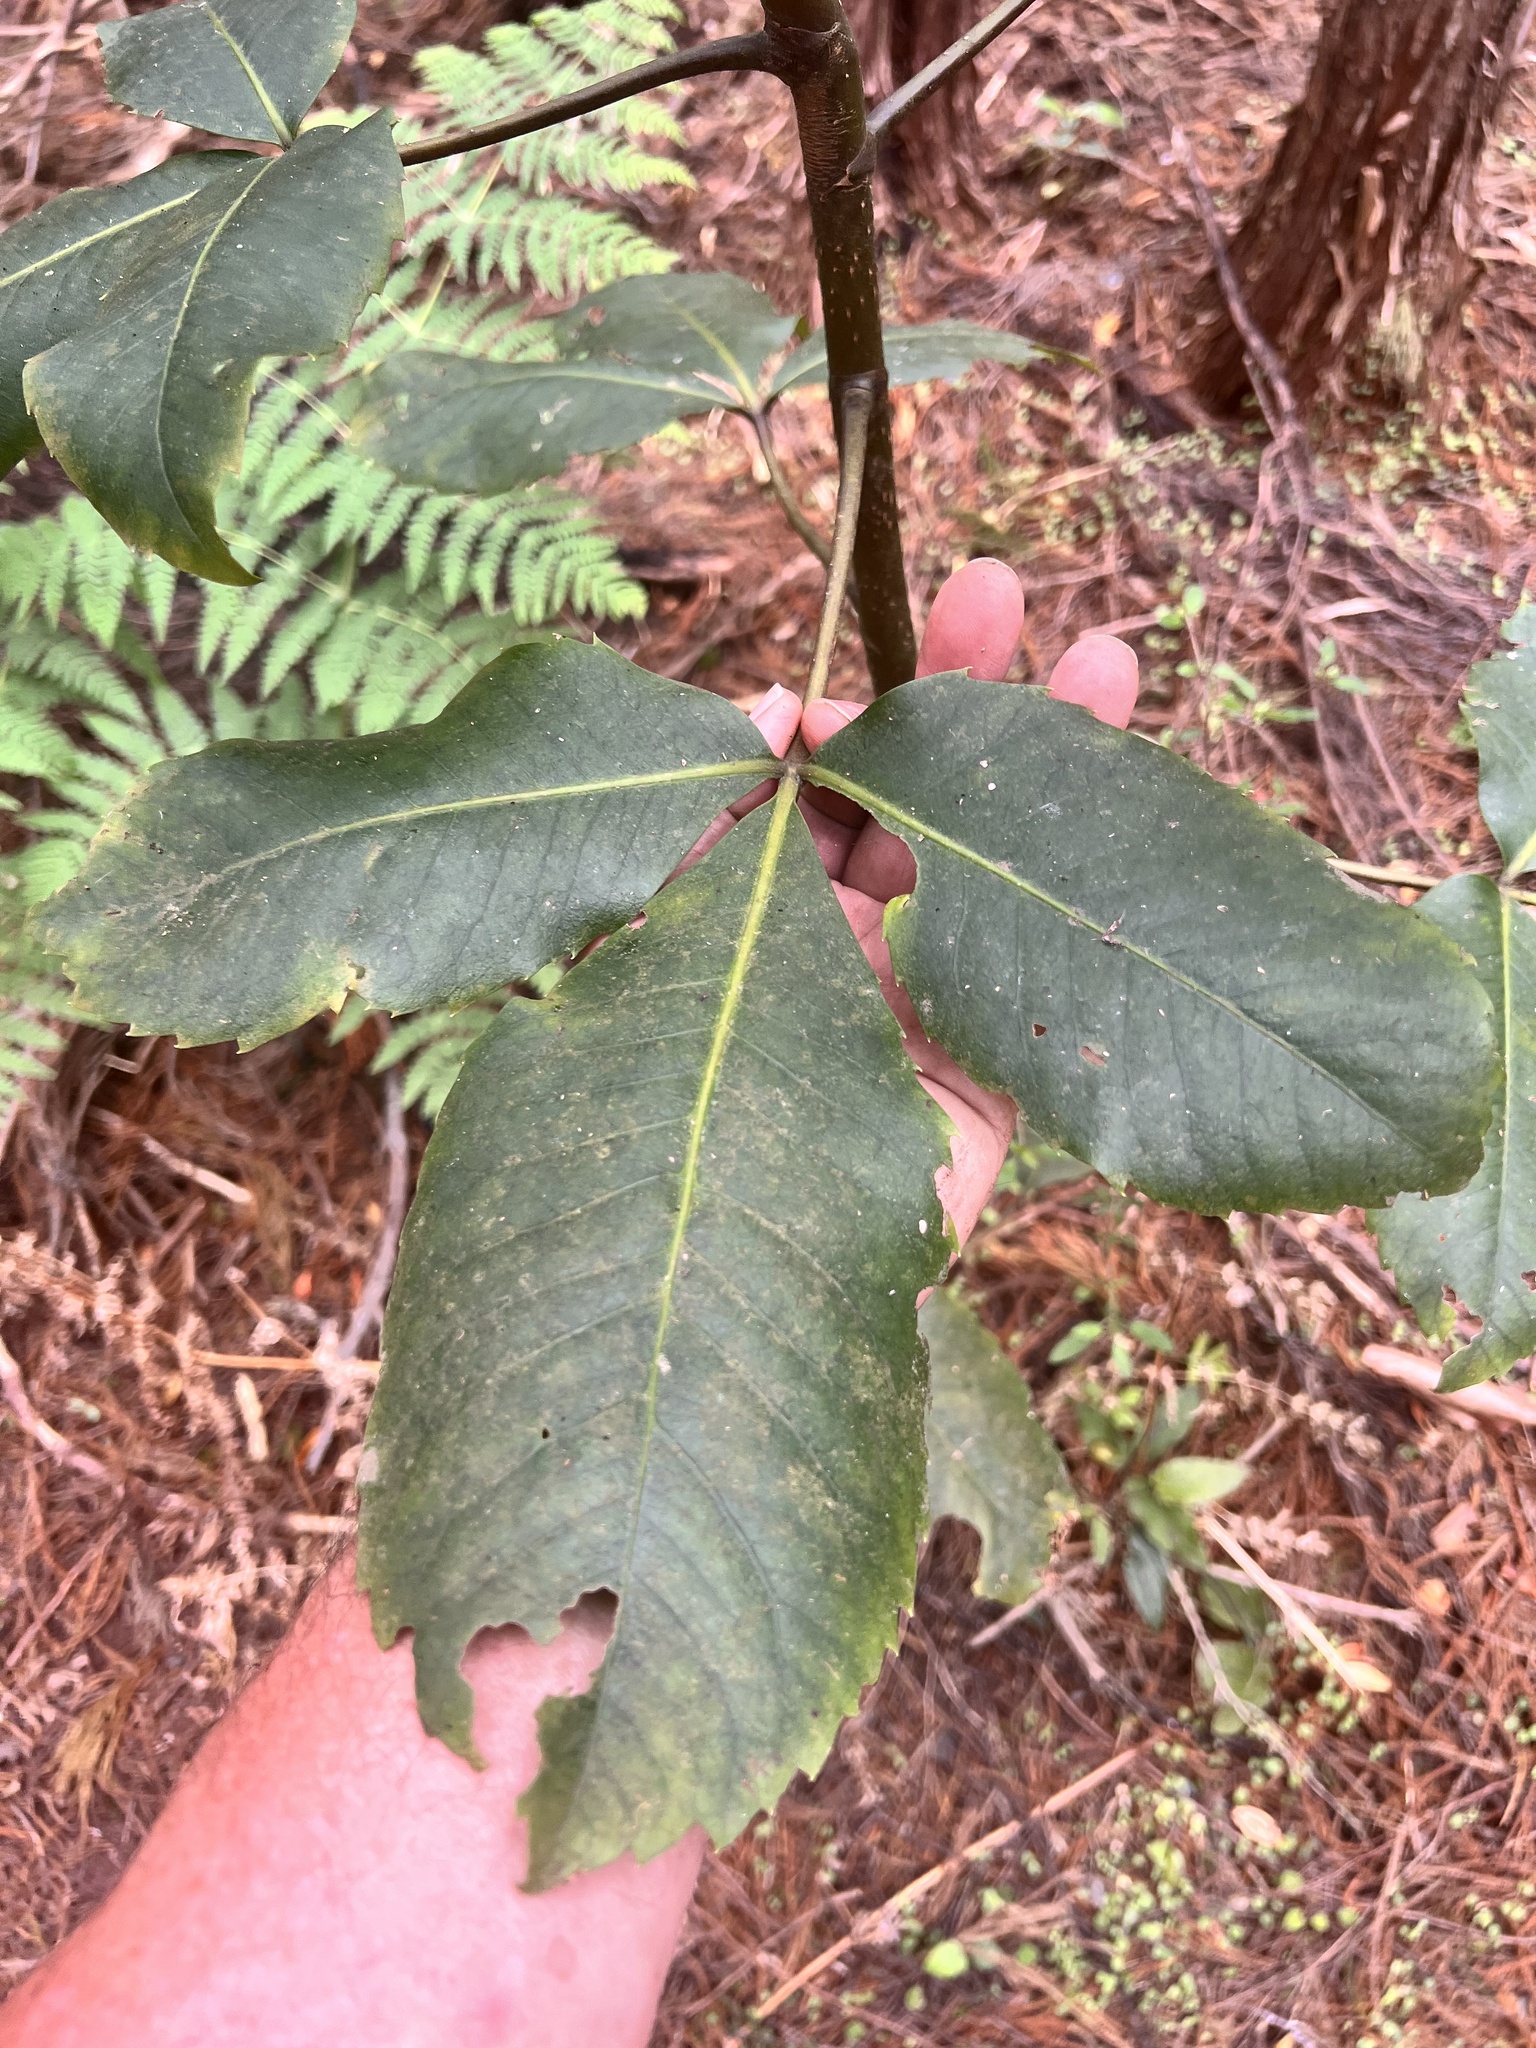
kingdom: Plantae
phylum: Tracheophyta
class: Magnoliopsida
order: Apiales
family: Araliaceae
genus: Neopanax
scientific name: Neopanax colensoi
